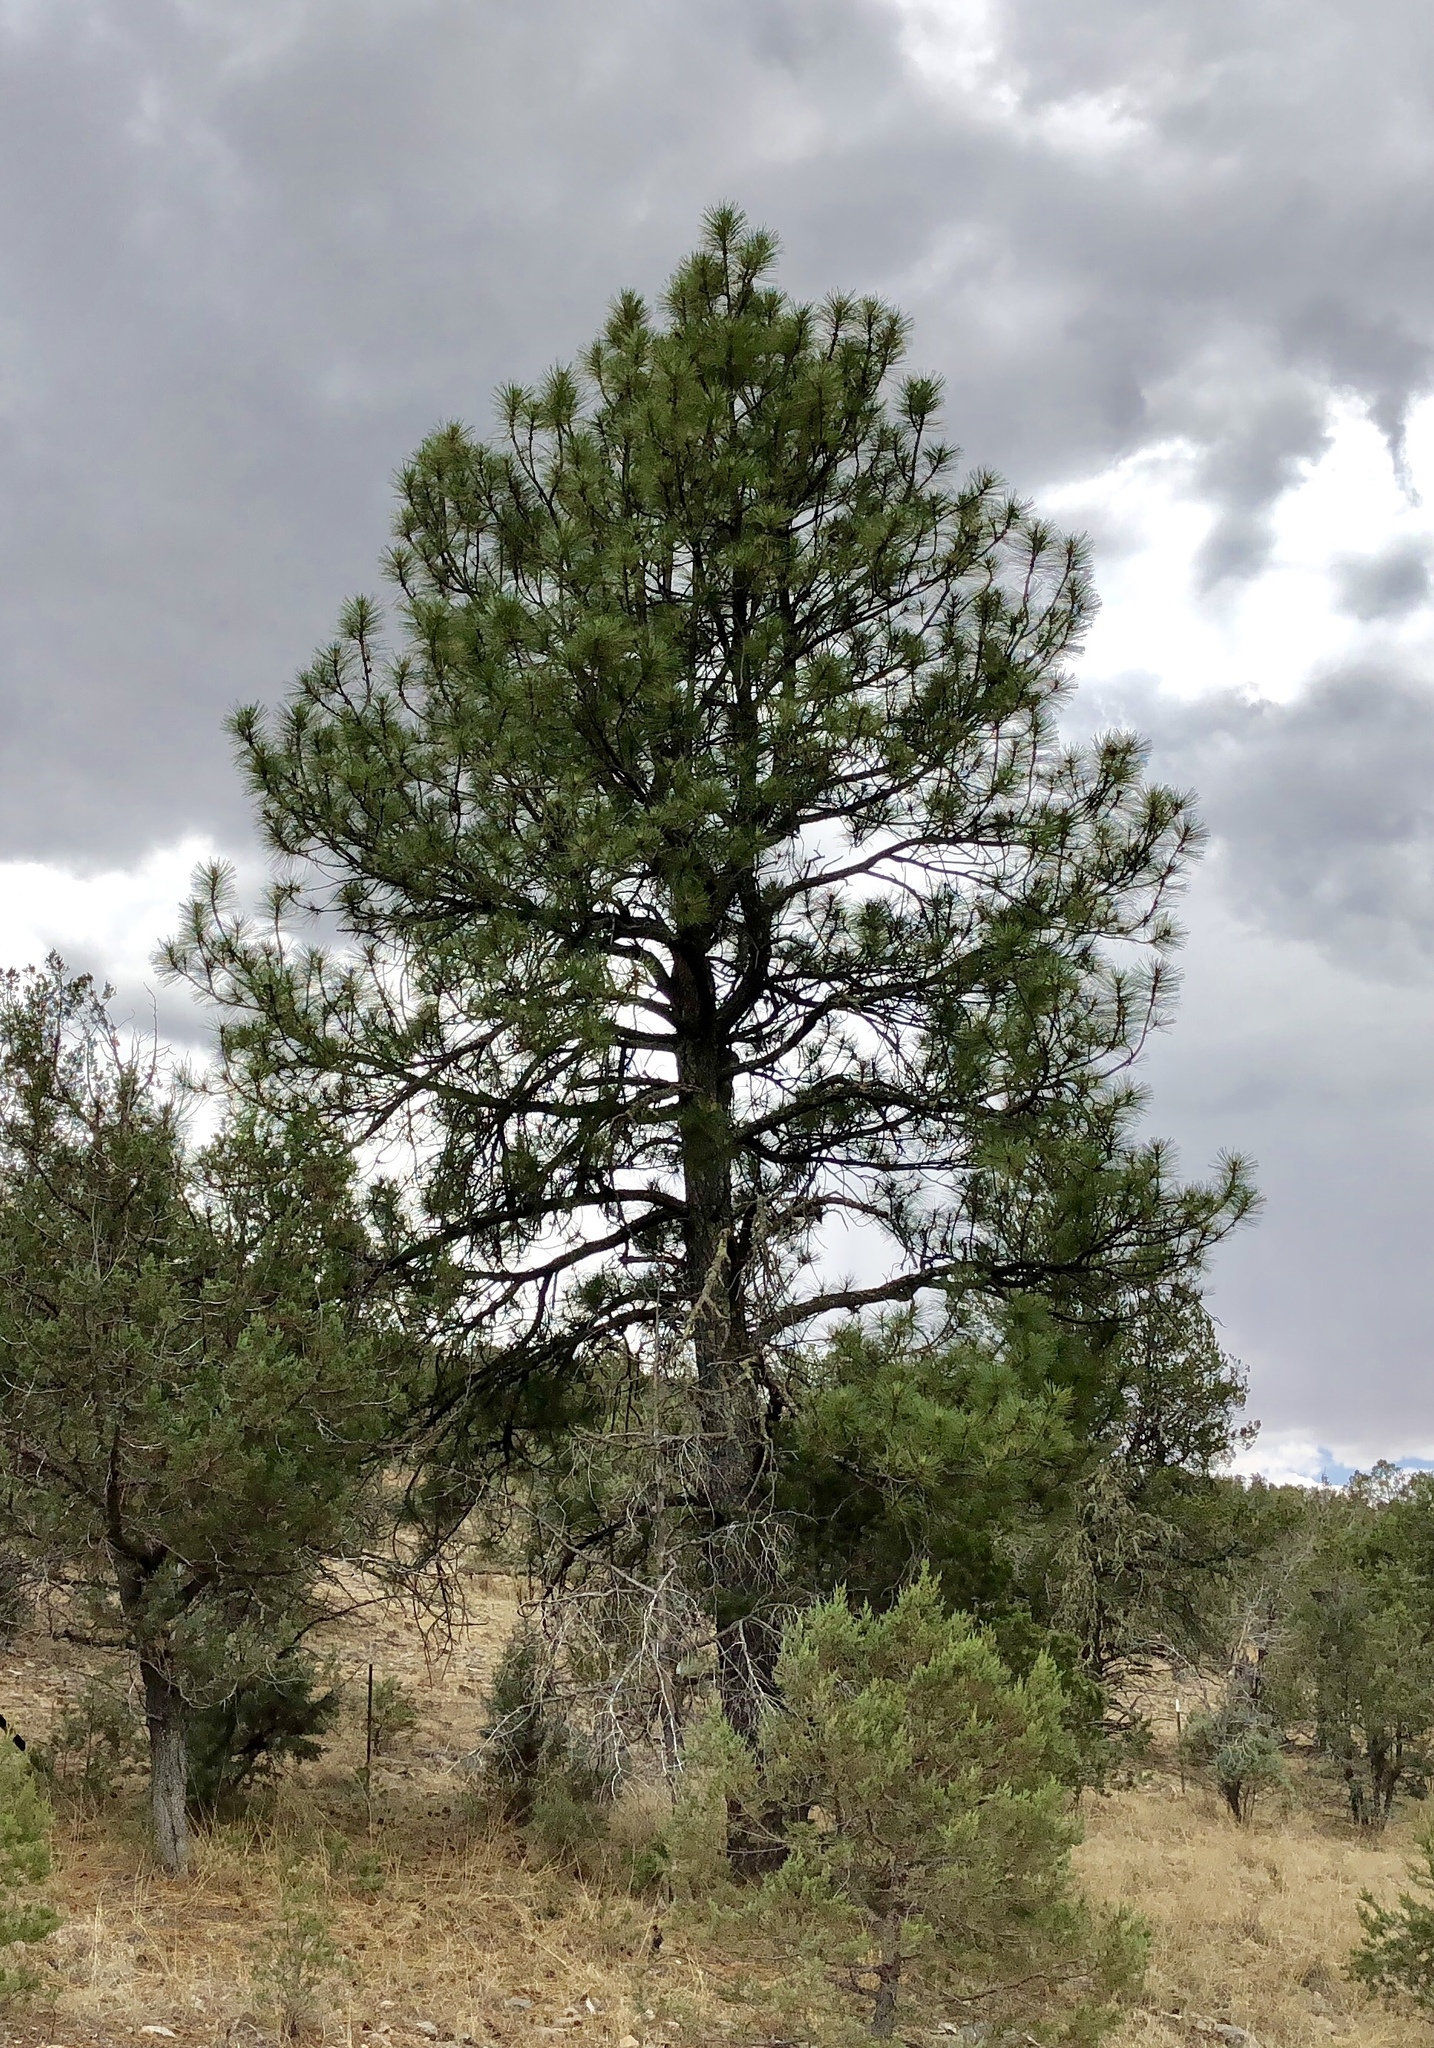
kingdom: Plantae
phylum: Tracheophyta
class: Pinopsida
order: Pinales
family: Pinaceae
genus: Pinus
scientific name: Pinus ponderosa
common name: Western yellow-pine
